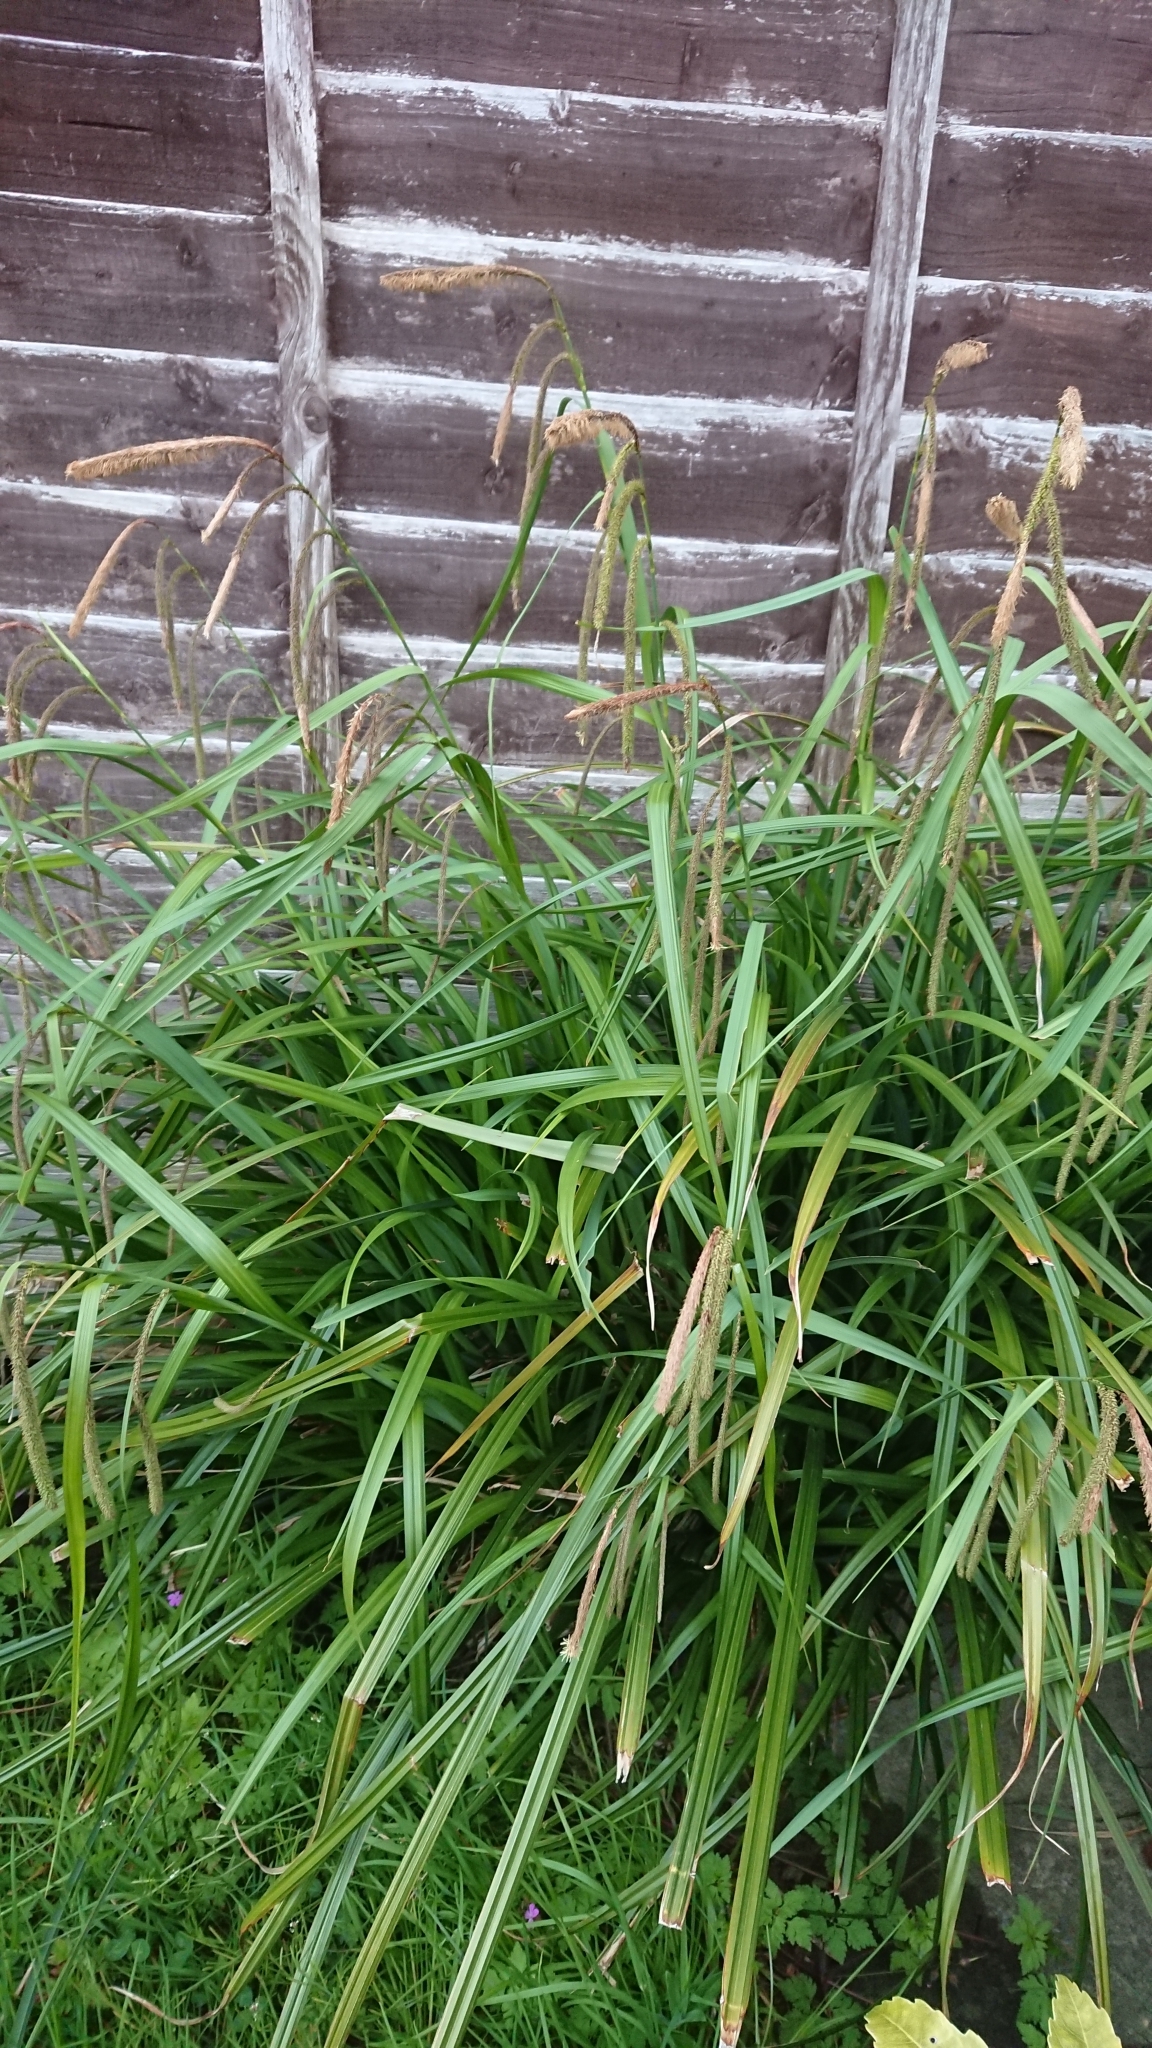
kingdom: Plantae
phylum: Tracheophyta
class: Liliopsida
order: Poales
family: Cyperaceae
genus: Carex
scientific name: Carex pendula
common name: Pendulous sedge
